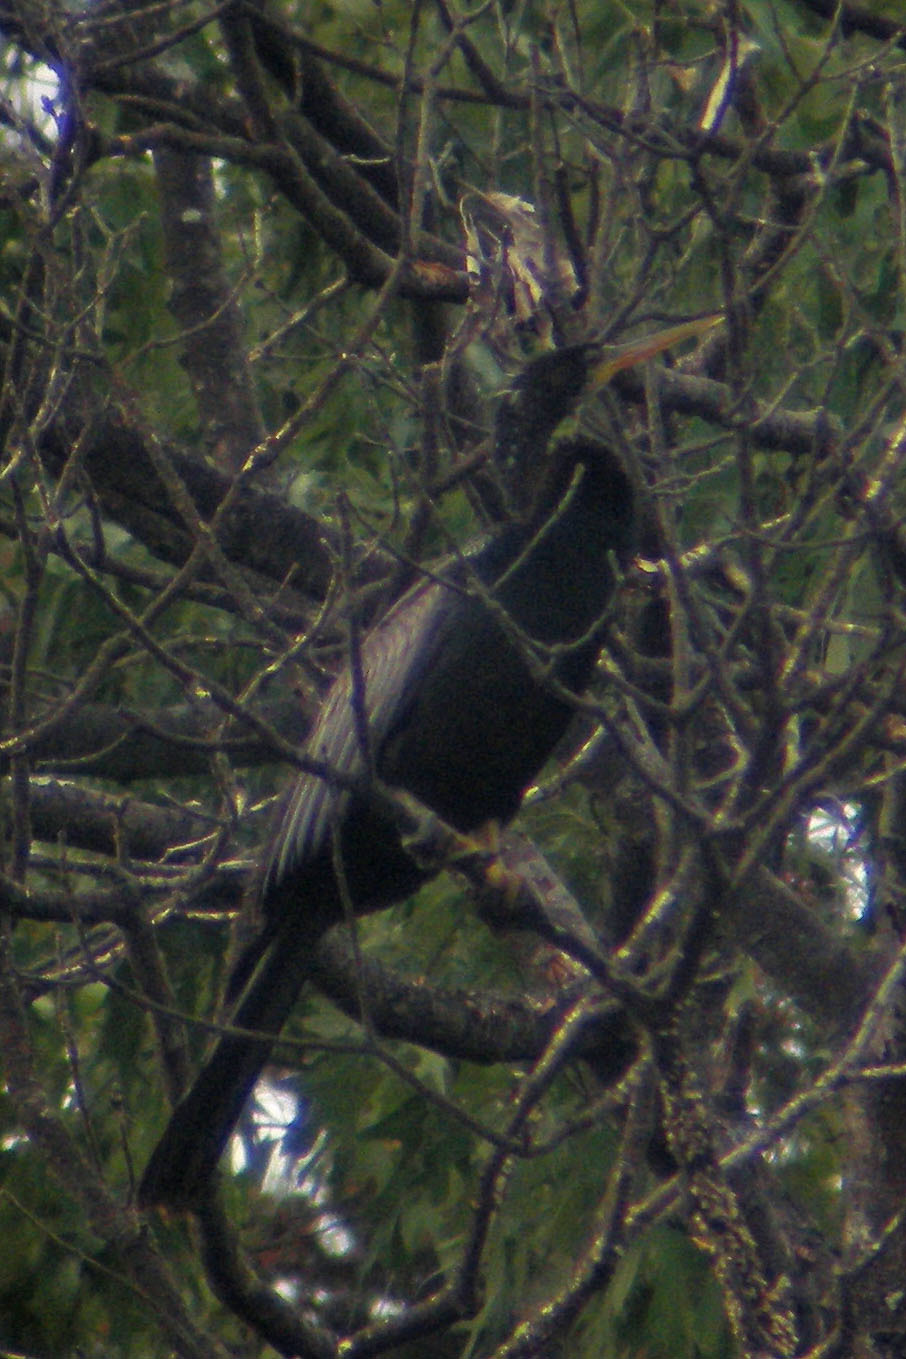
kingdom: Animalia
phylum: Chordata
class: Aves
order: Suliformes
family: Anhingidae
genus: Anhinga
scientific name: Anhinga anhinga
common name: Anhinga
